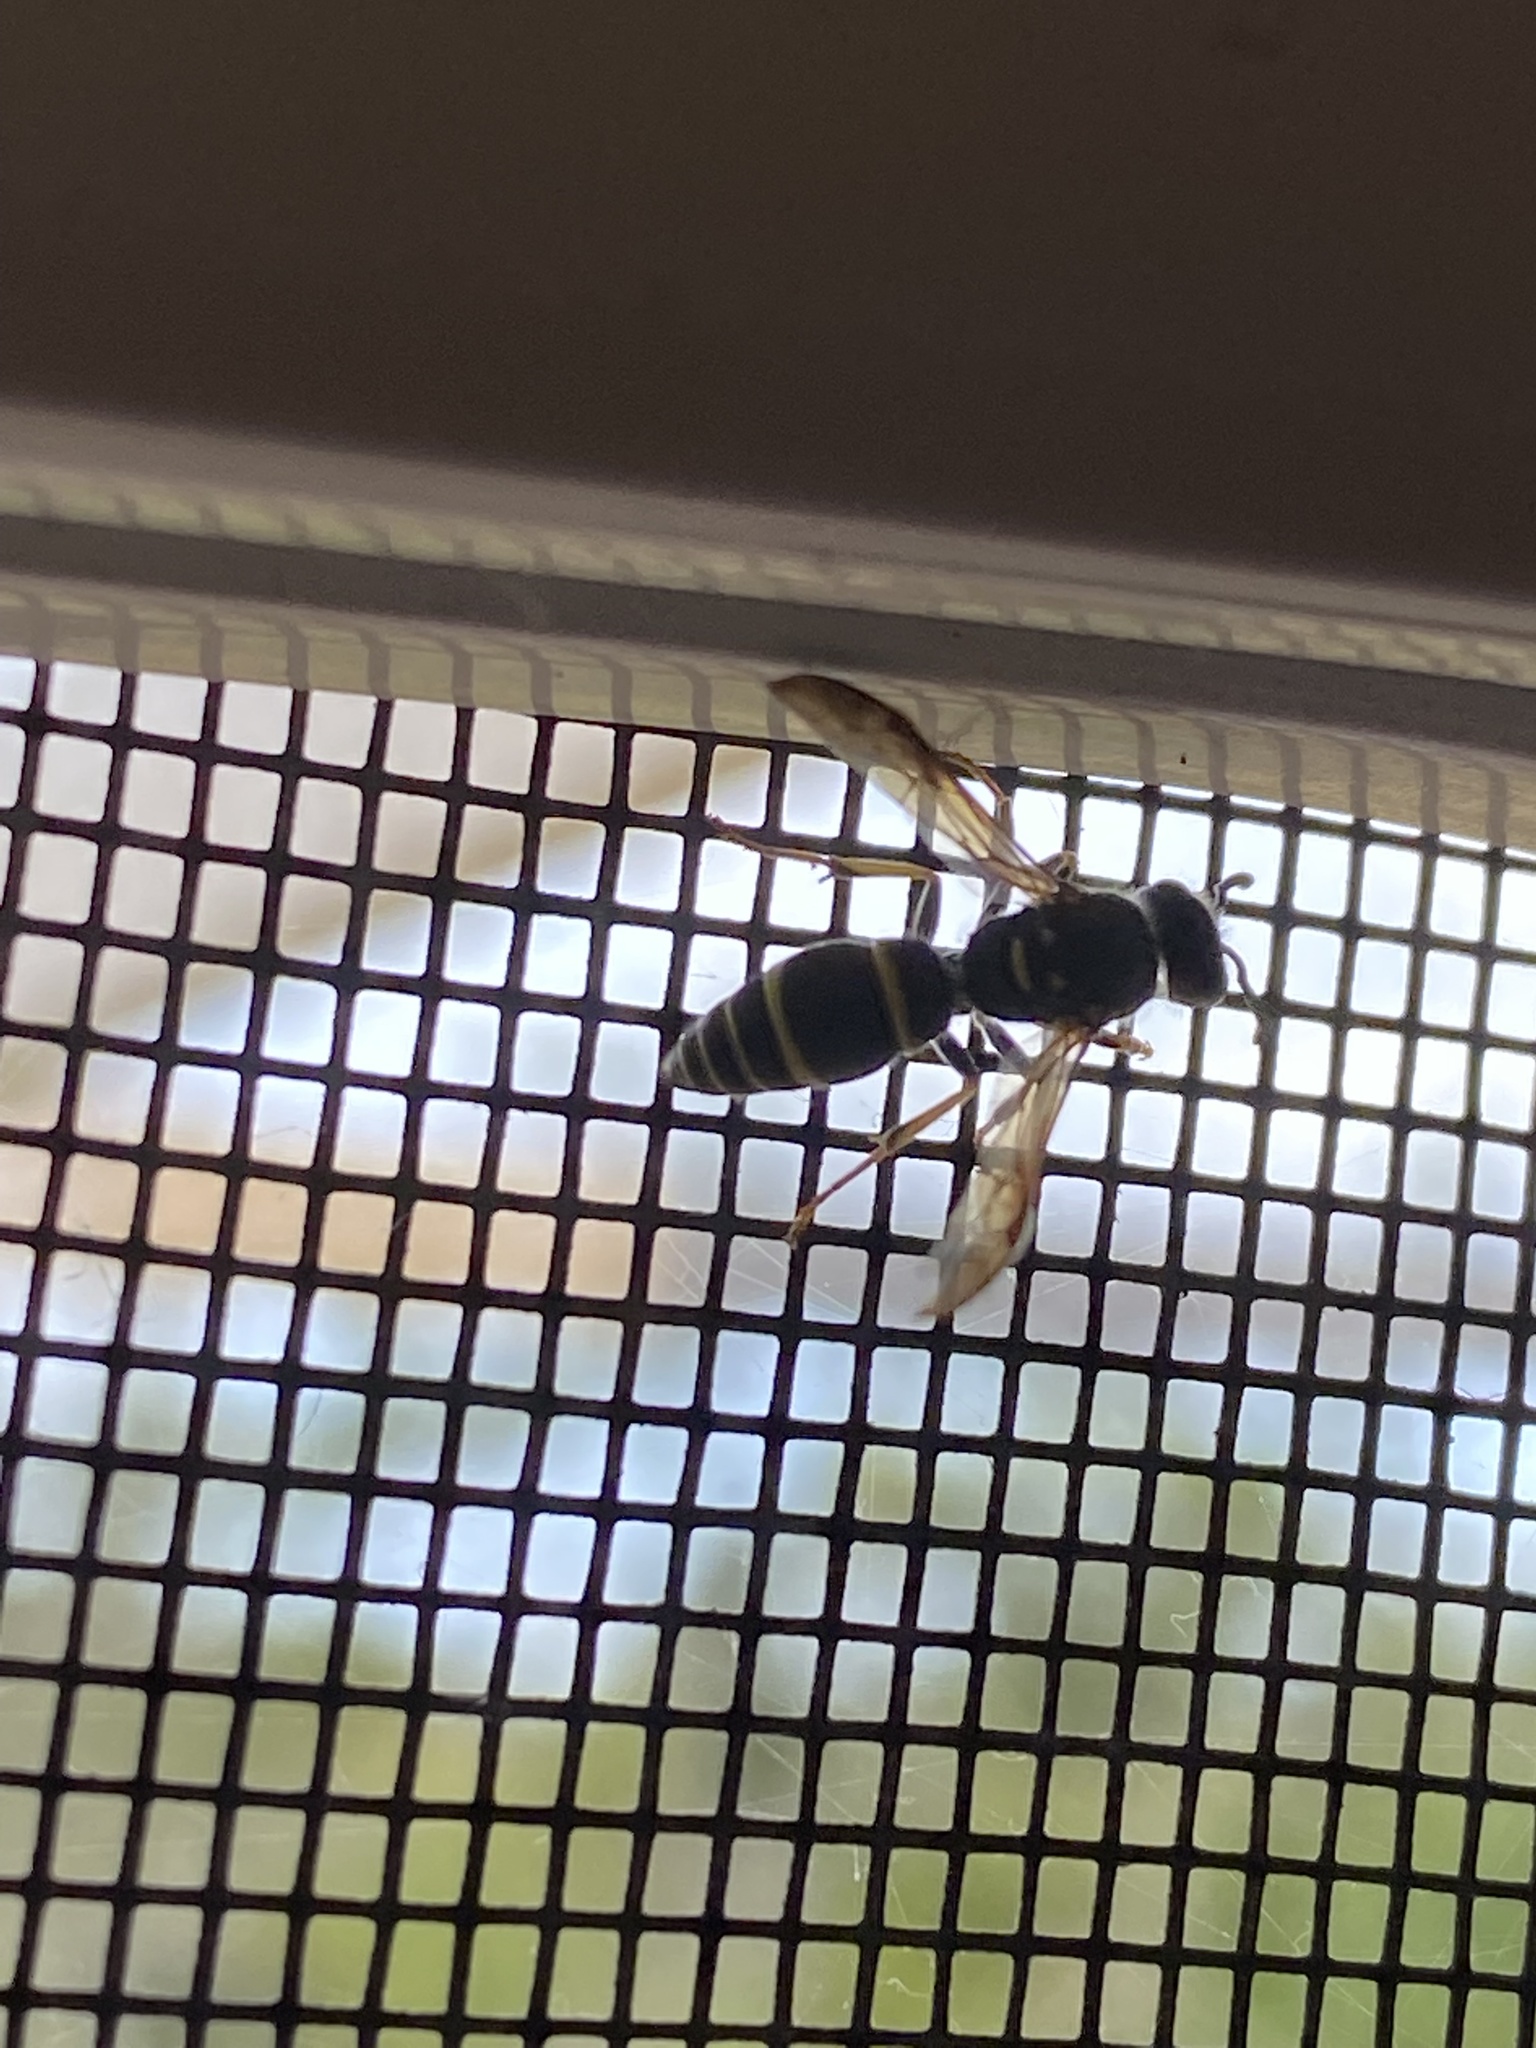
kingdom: Animalia
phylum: Arthropoda
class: Insecta
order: Hymenoptera
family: Vespidae
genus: Ancistrocerus
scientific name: Ancistrocerus adiabatus
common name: Bramble mason wasp
